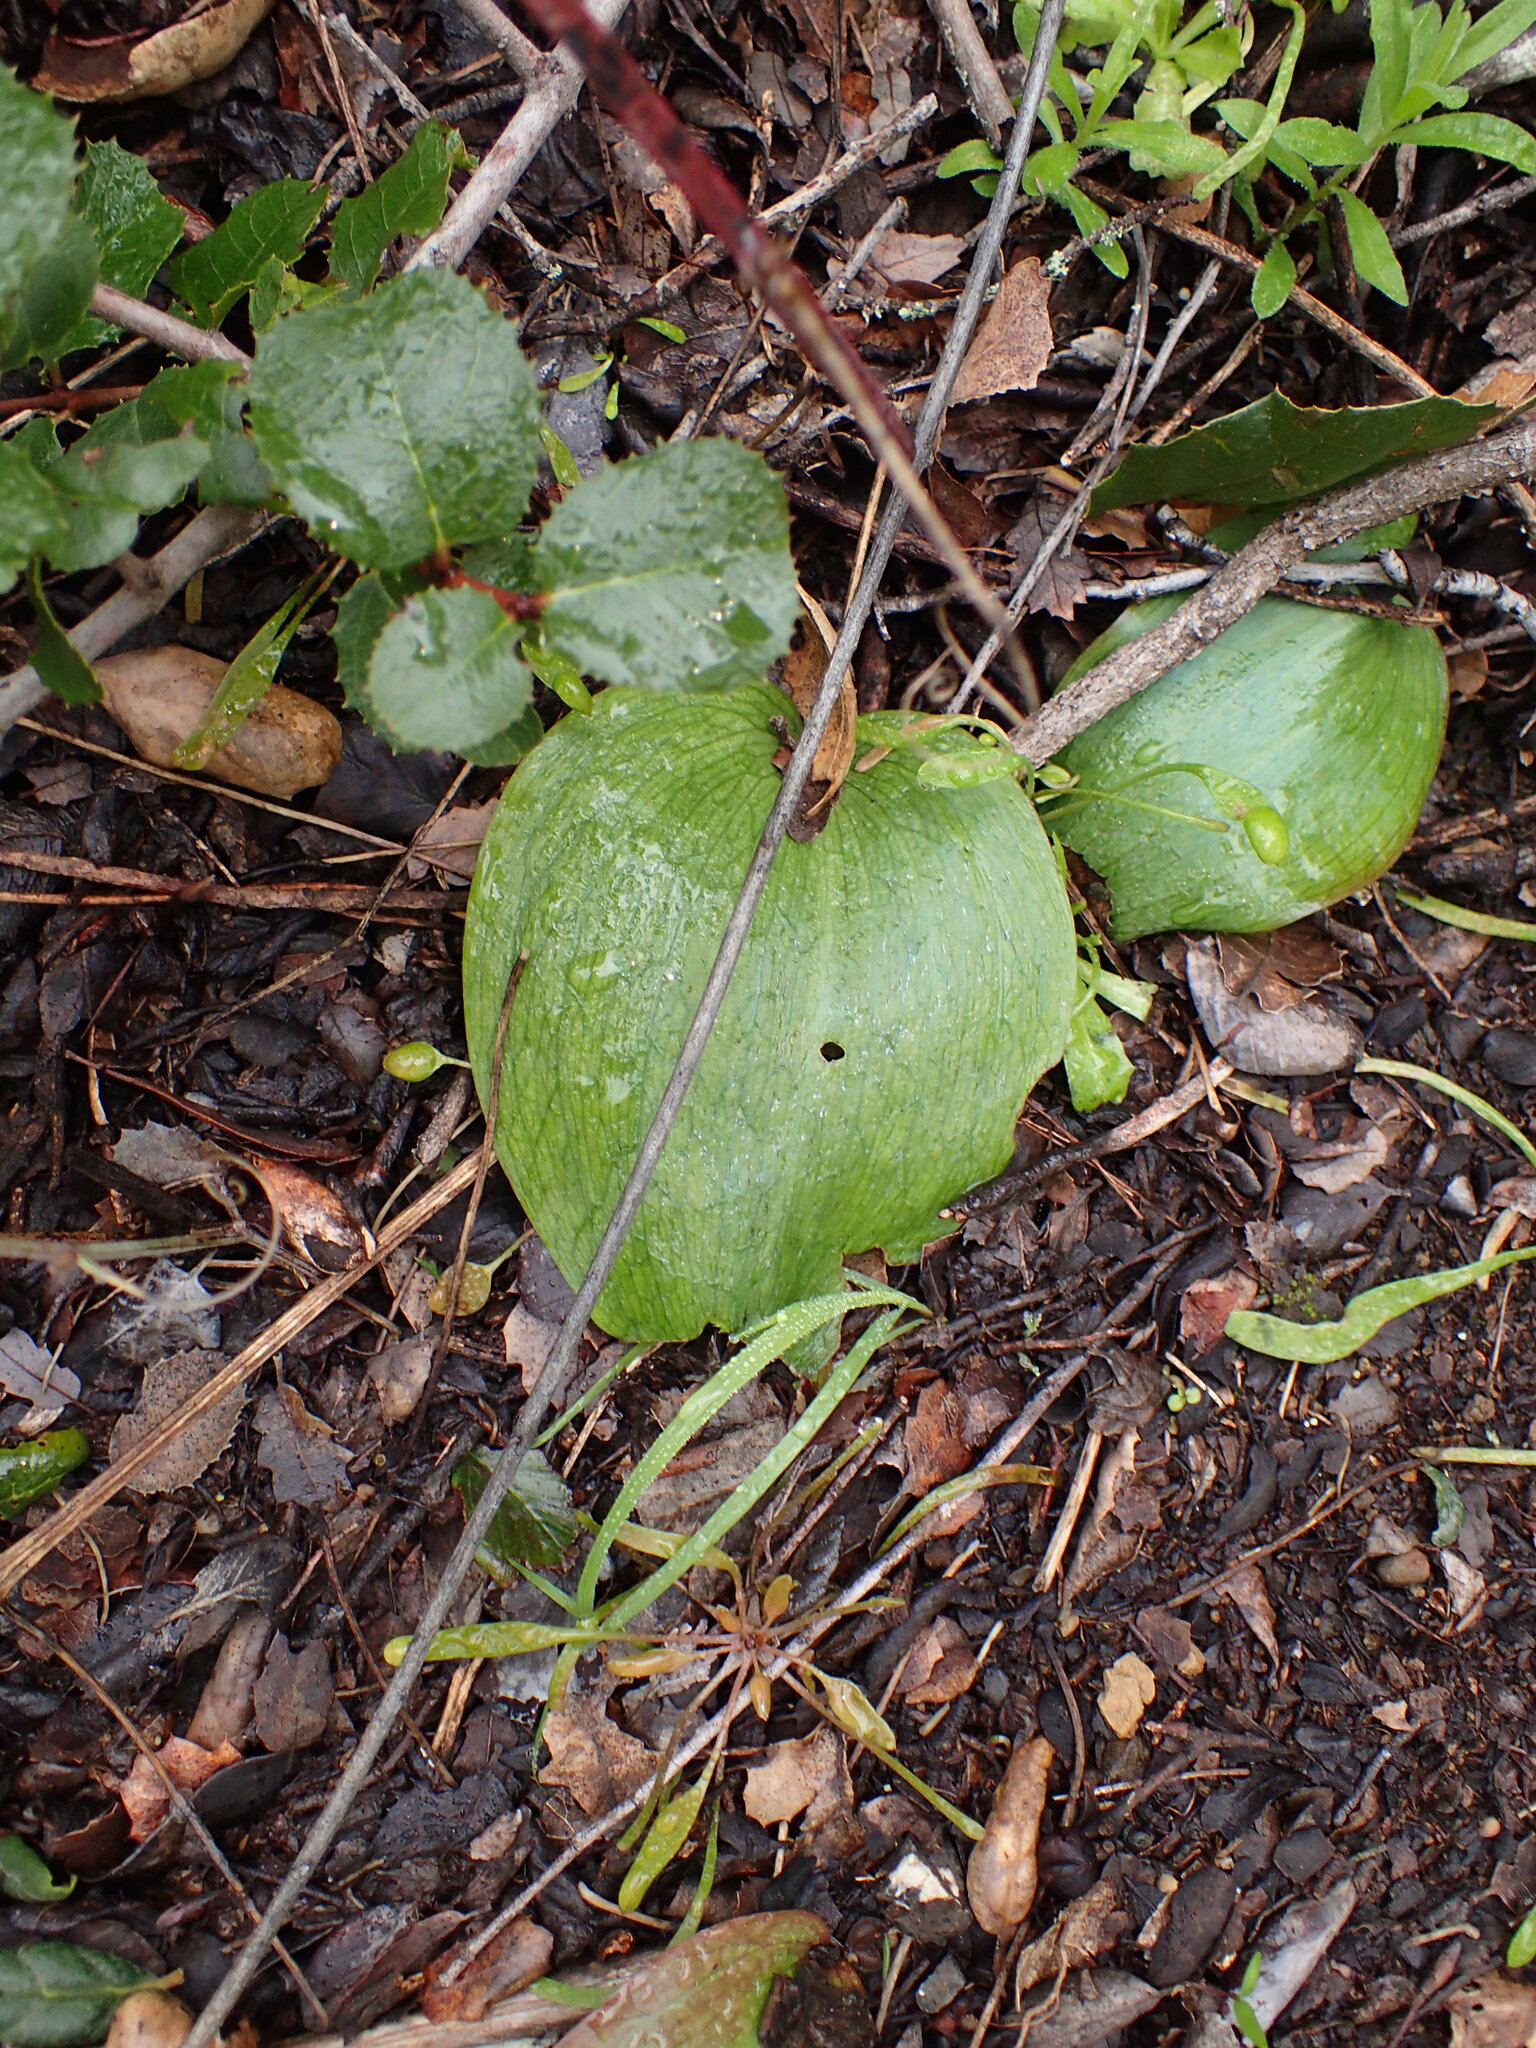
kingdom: Plantae
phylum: Tracheophyta
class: Liliopsida
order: Liliales
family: Liliaceae
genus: Fritillaria
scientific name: Fritillaria ojaiensis
